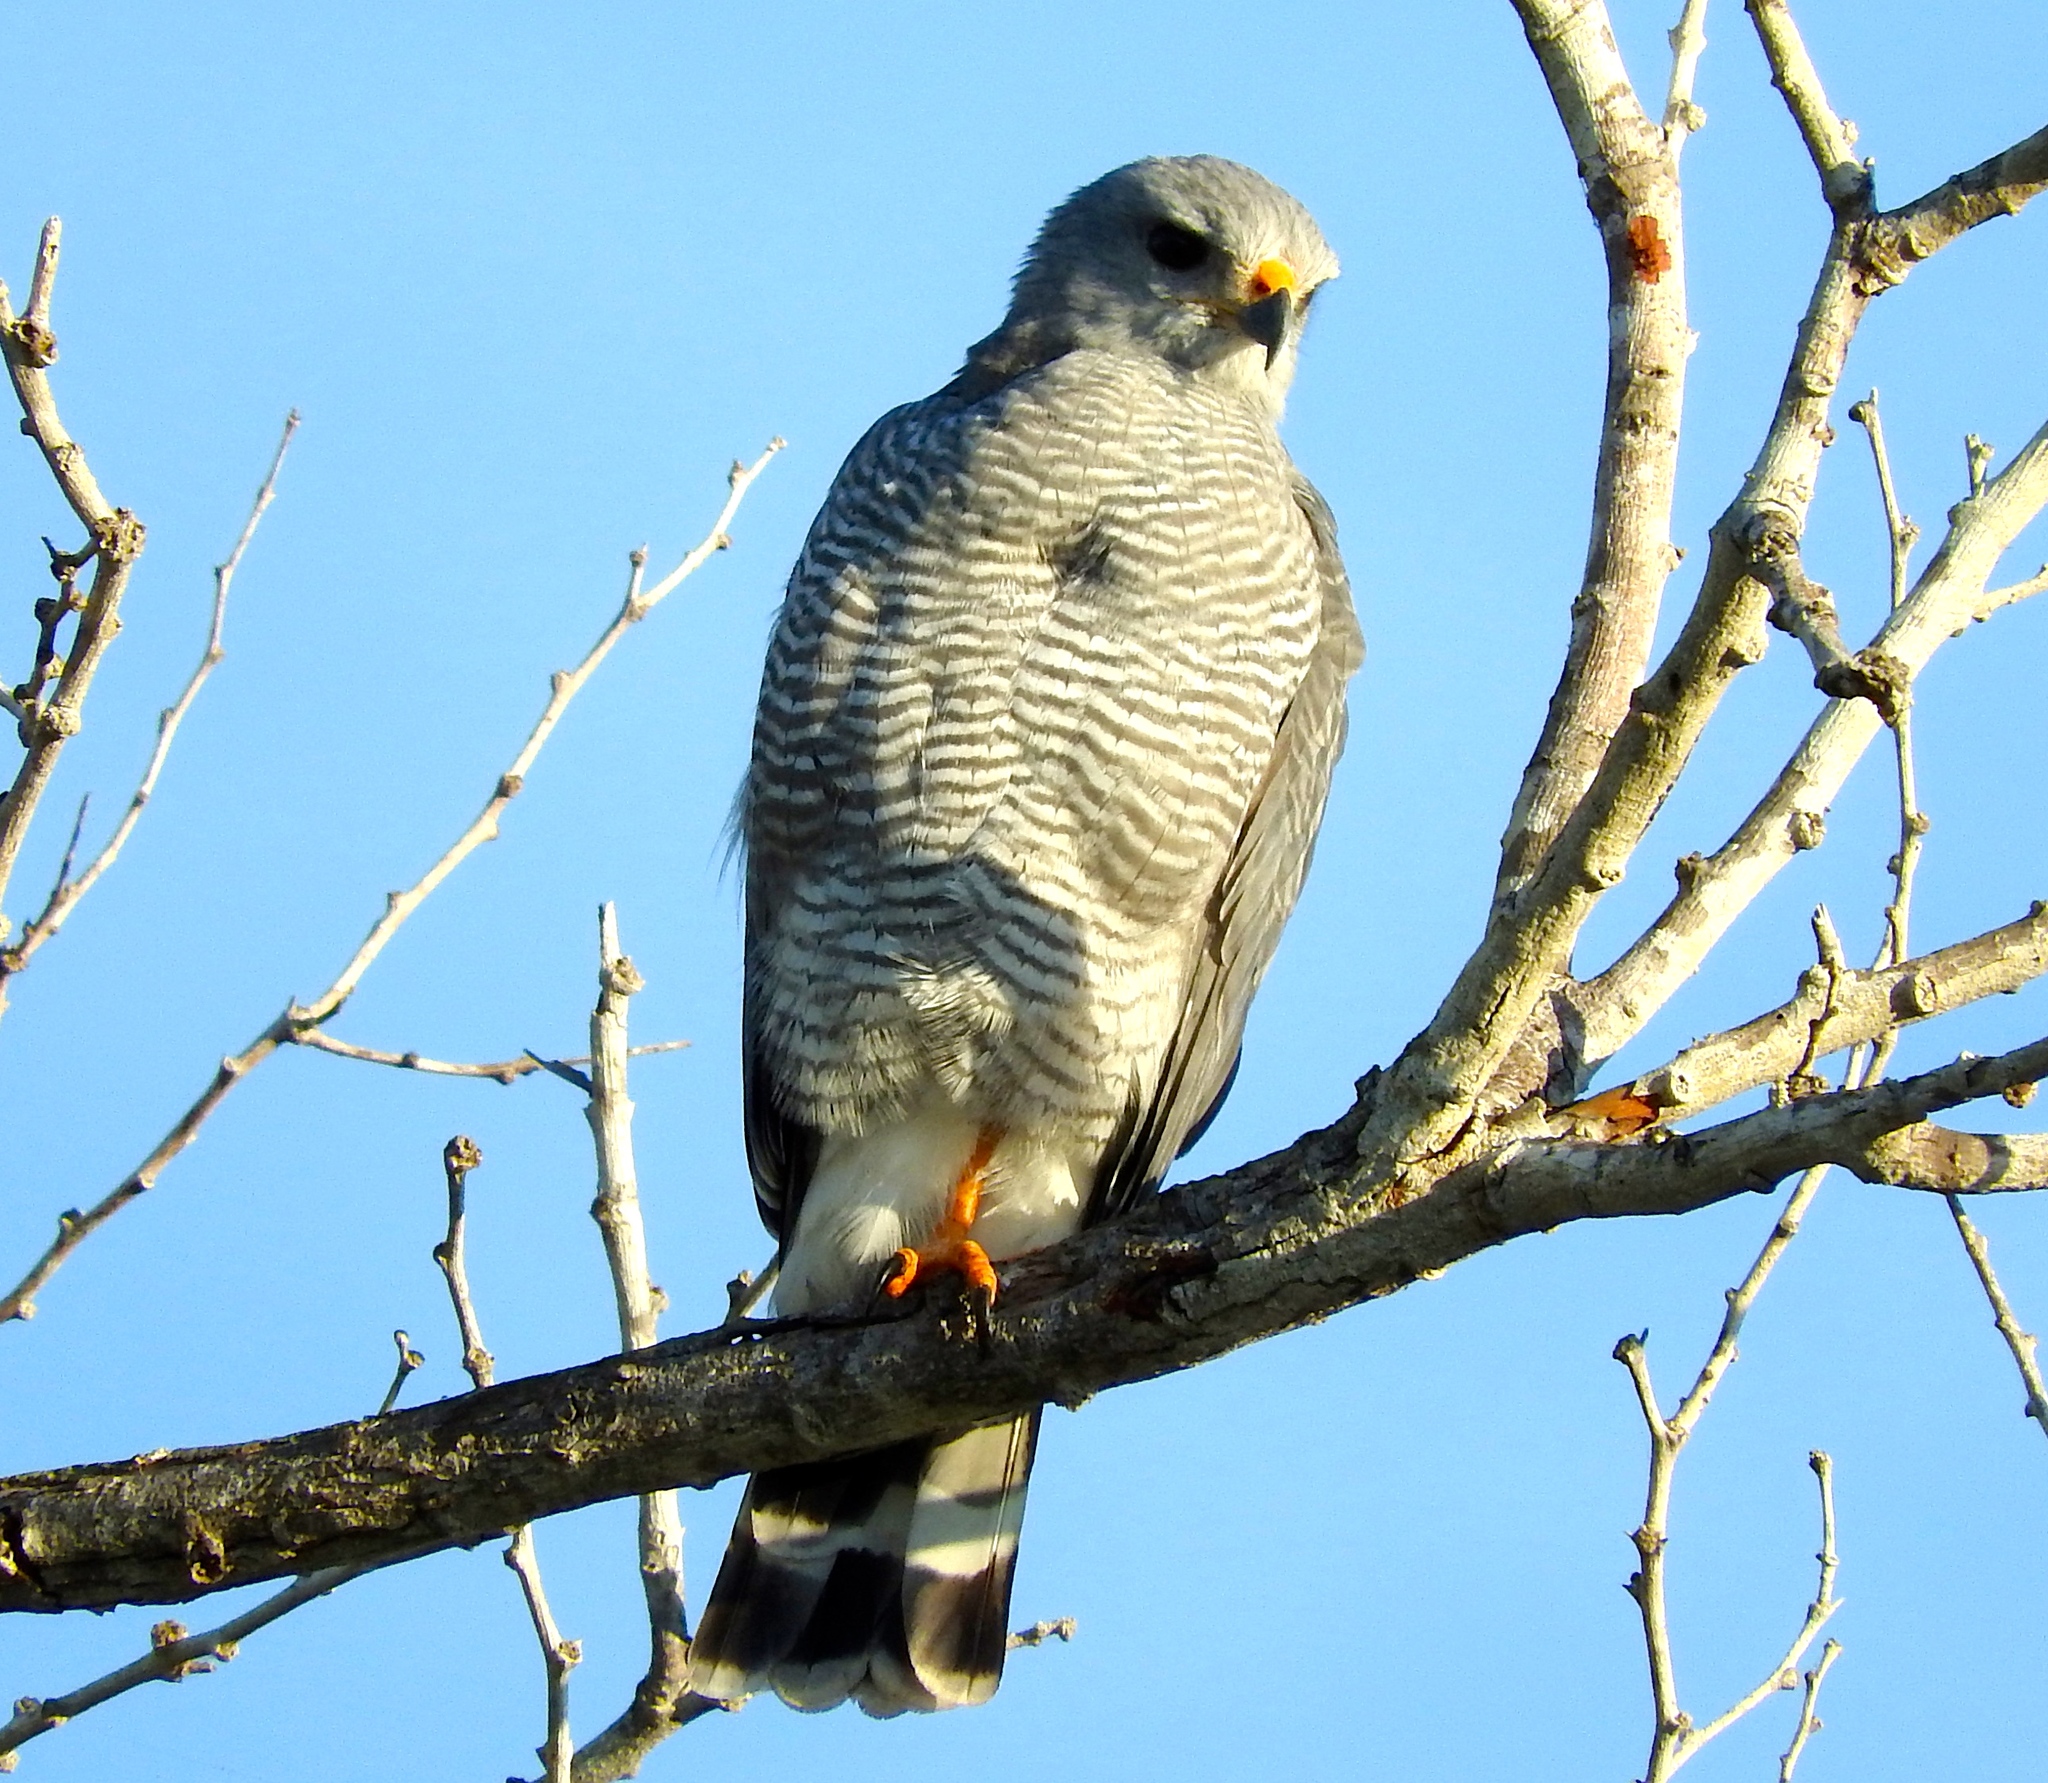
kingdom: Animalia
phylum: Chordata
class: Aves
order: Accipitriformes
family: Accipitridae
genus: Buteo
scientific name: Buteo nitidus
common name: Grey-lined hawk
